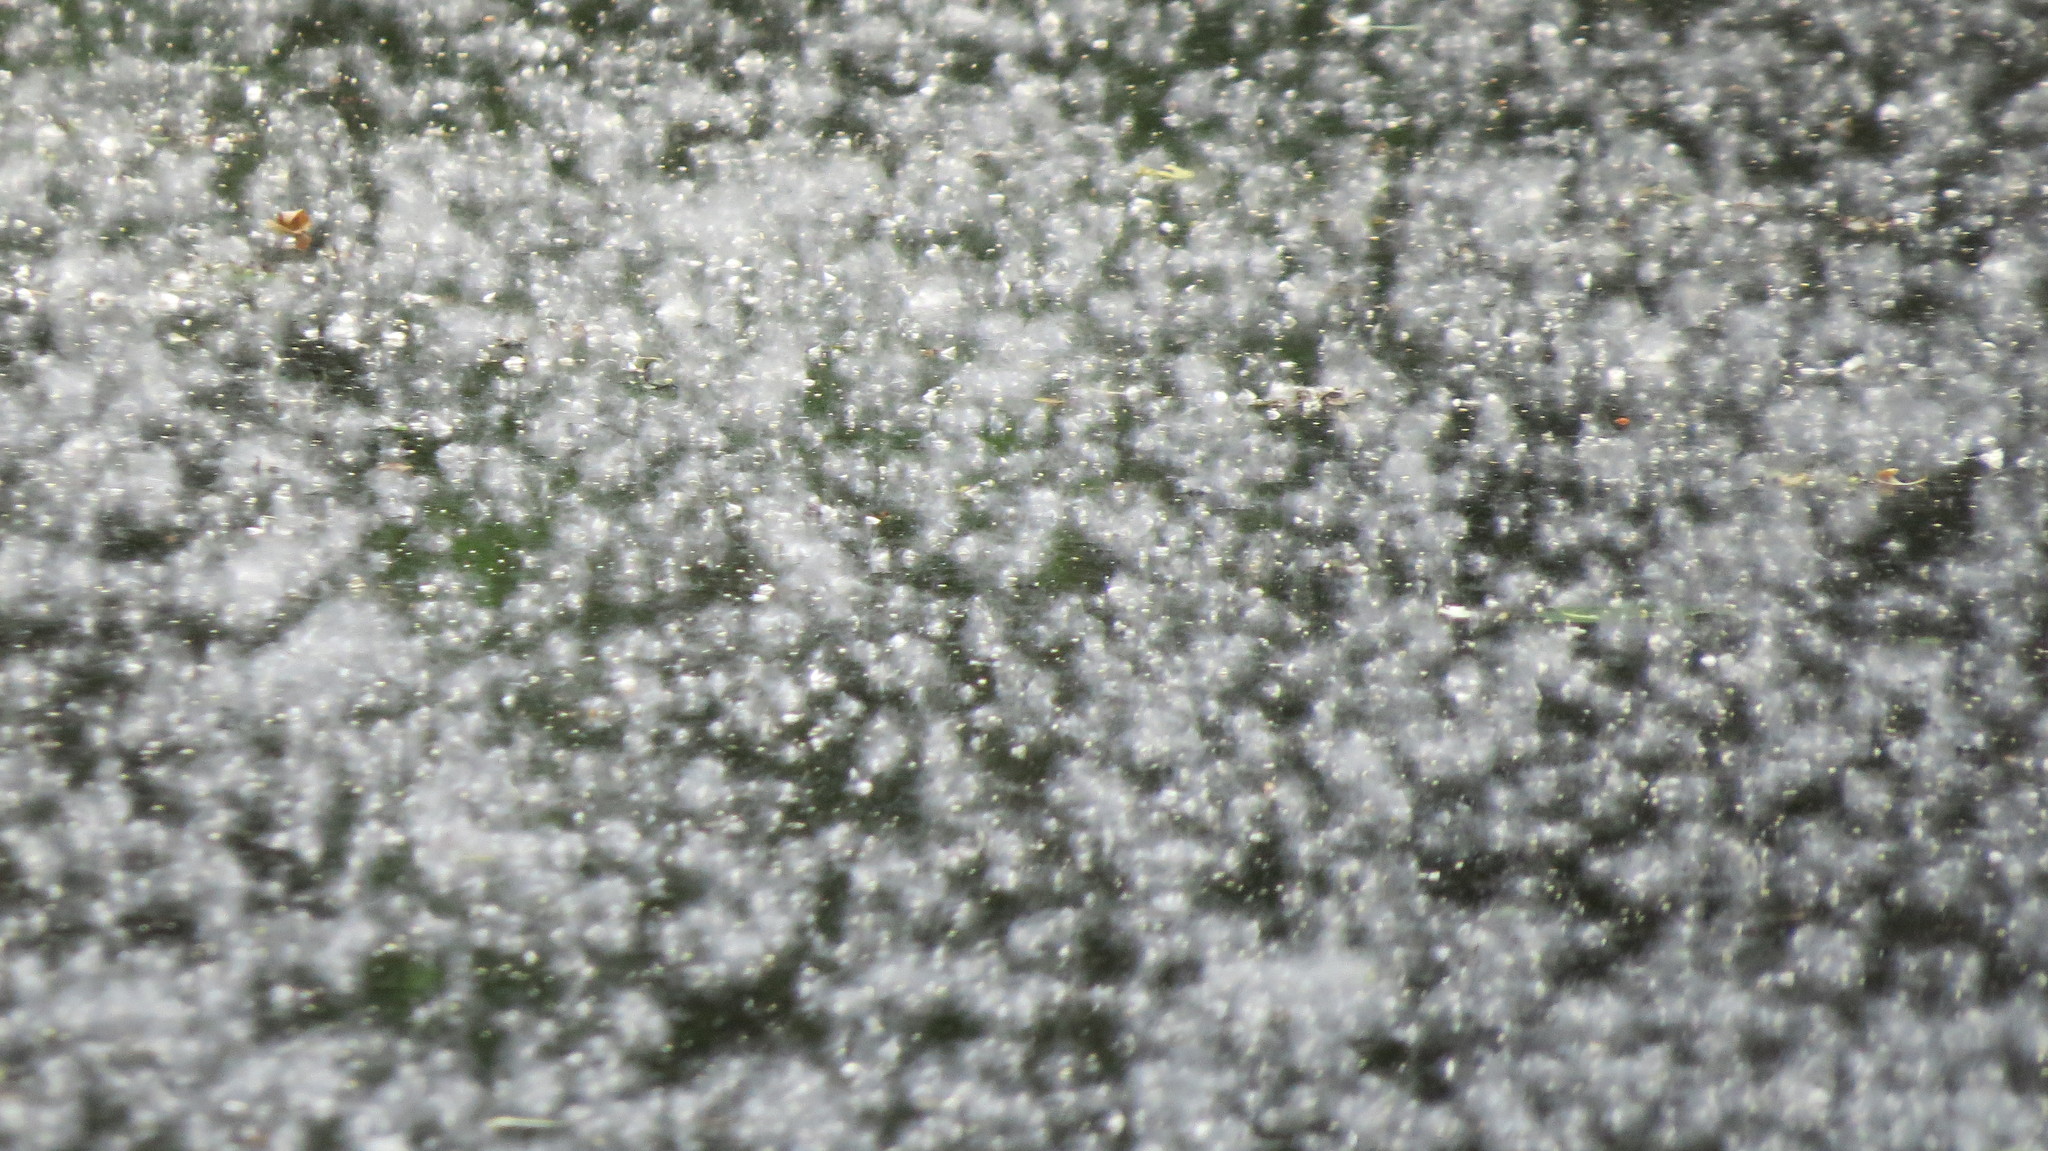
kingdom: Plantae
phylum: Tracheophyta
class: Magnoliopsida
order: Malpighiales
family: Salicaceae
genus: Populus
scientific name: Populus deltoides
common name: Eastern cottonwood
